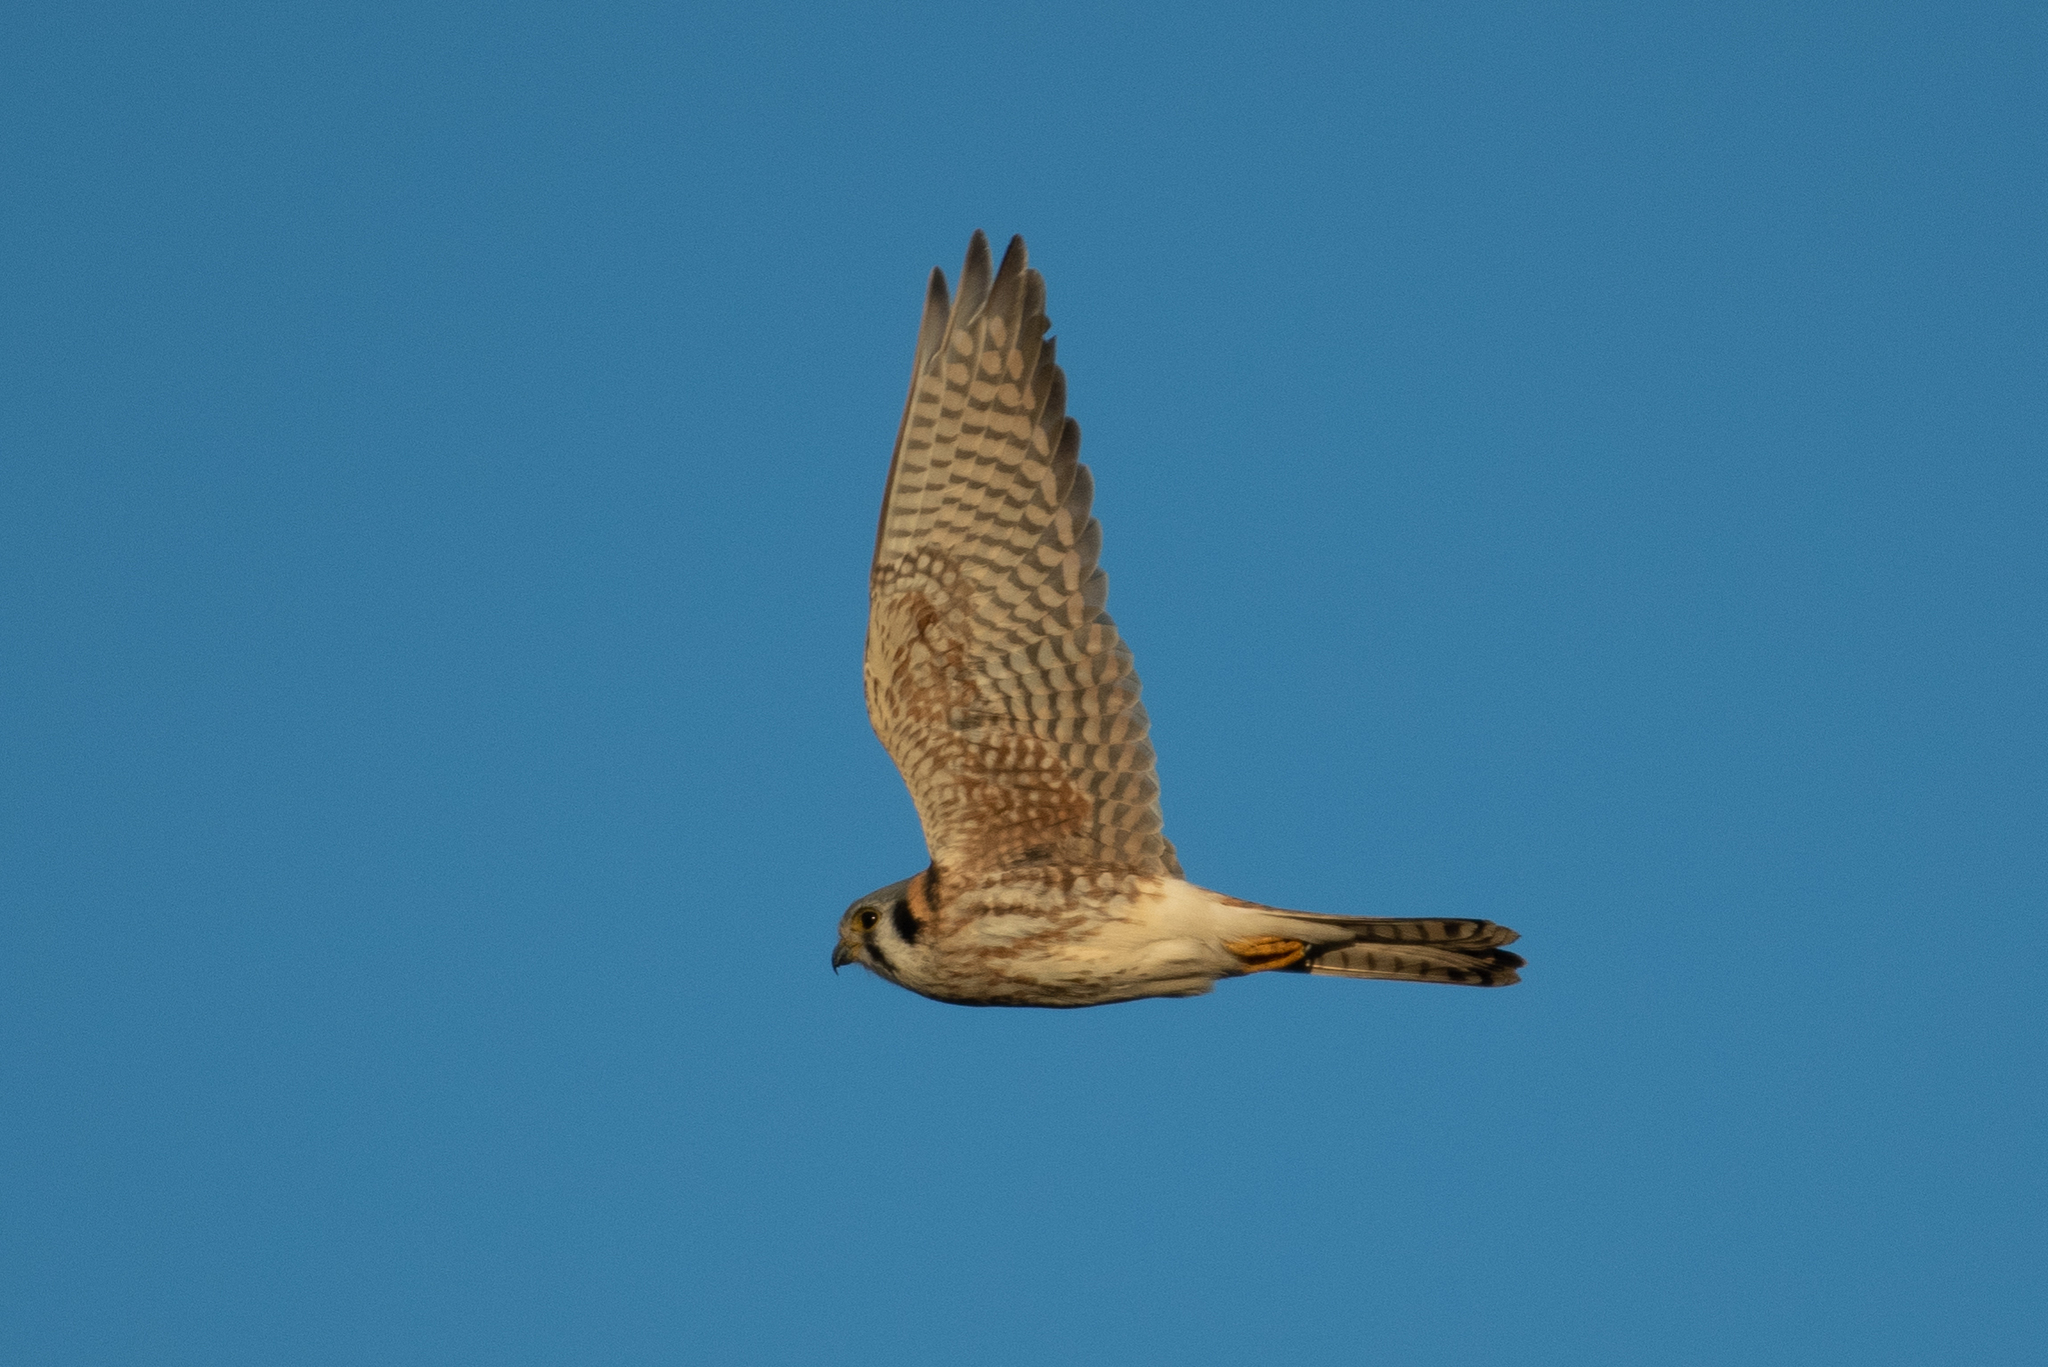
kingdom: Animalia
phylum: Chordata
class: Aves
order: Falconiformes
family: Falconidae
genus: Falco
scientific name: Falco sparverius
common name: American kestrel
